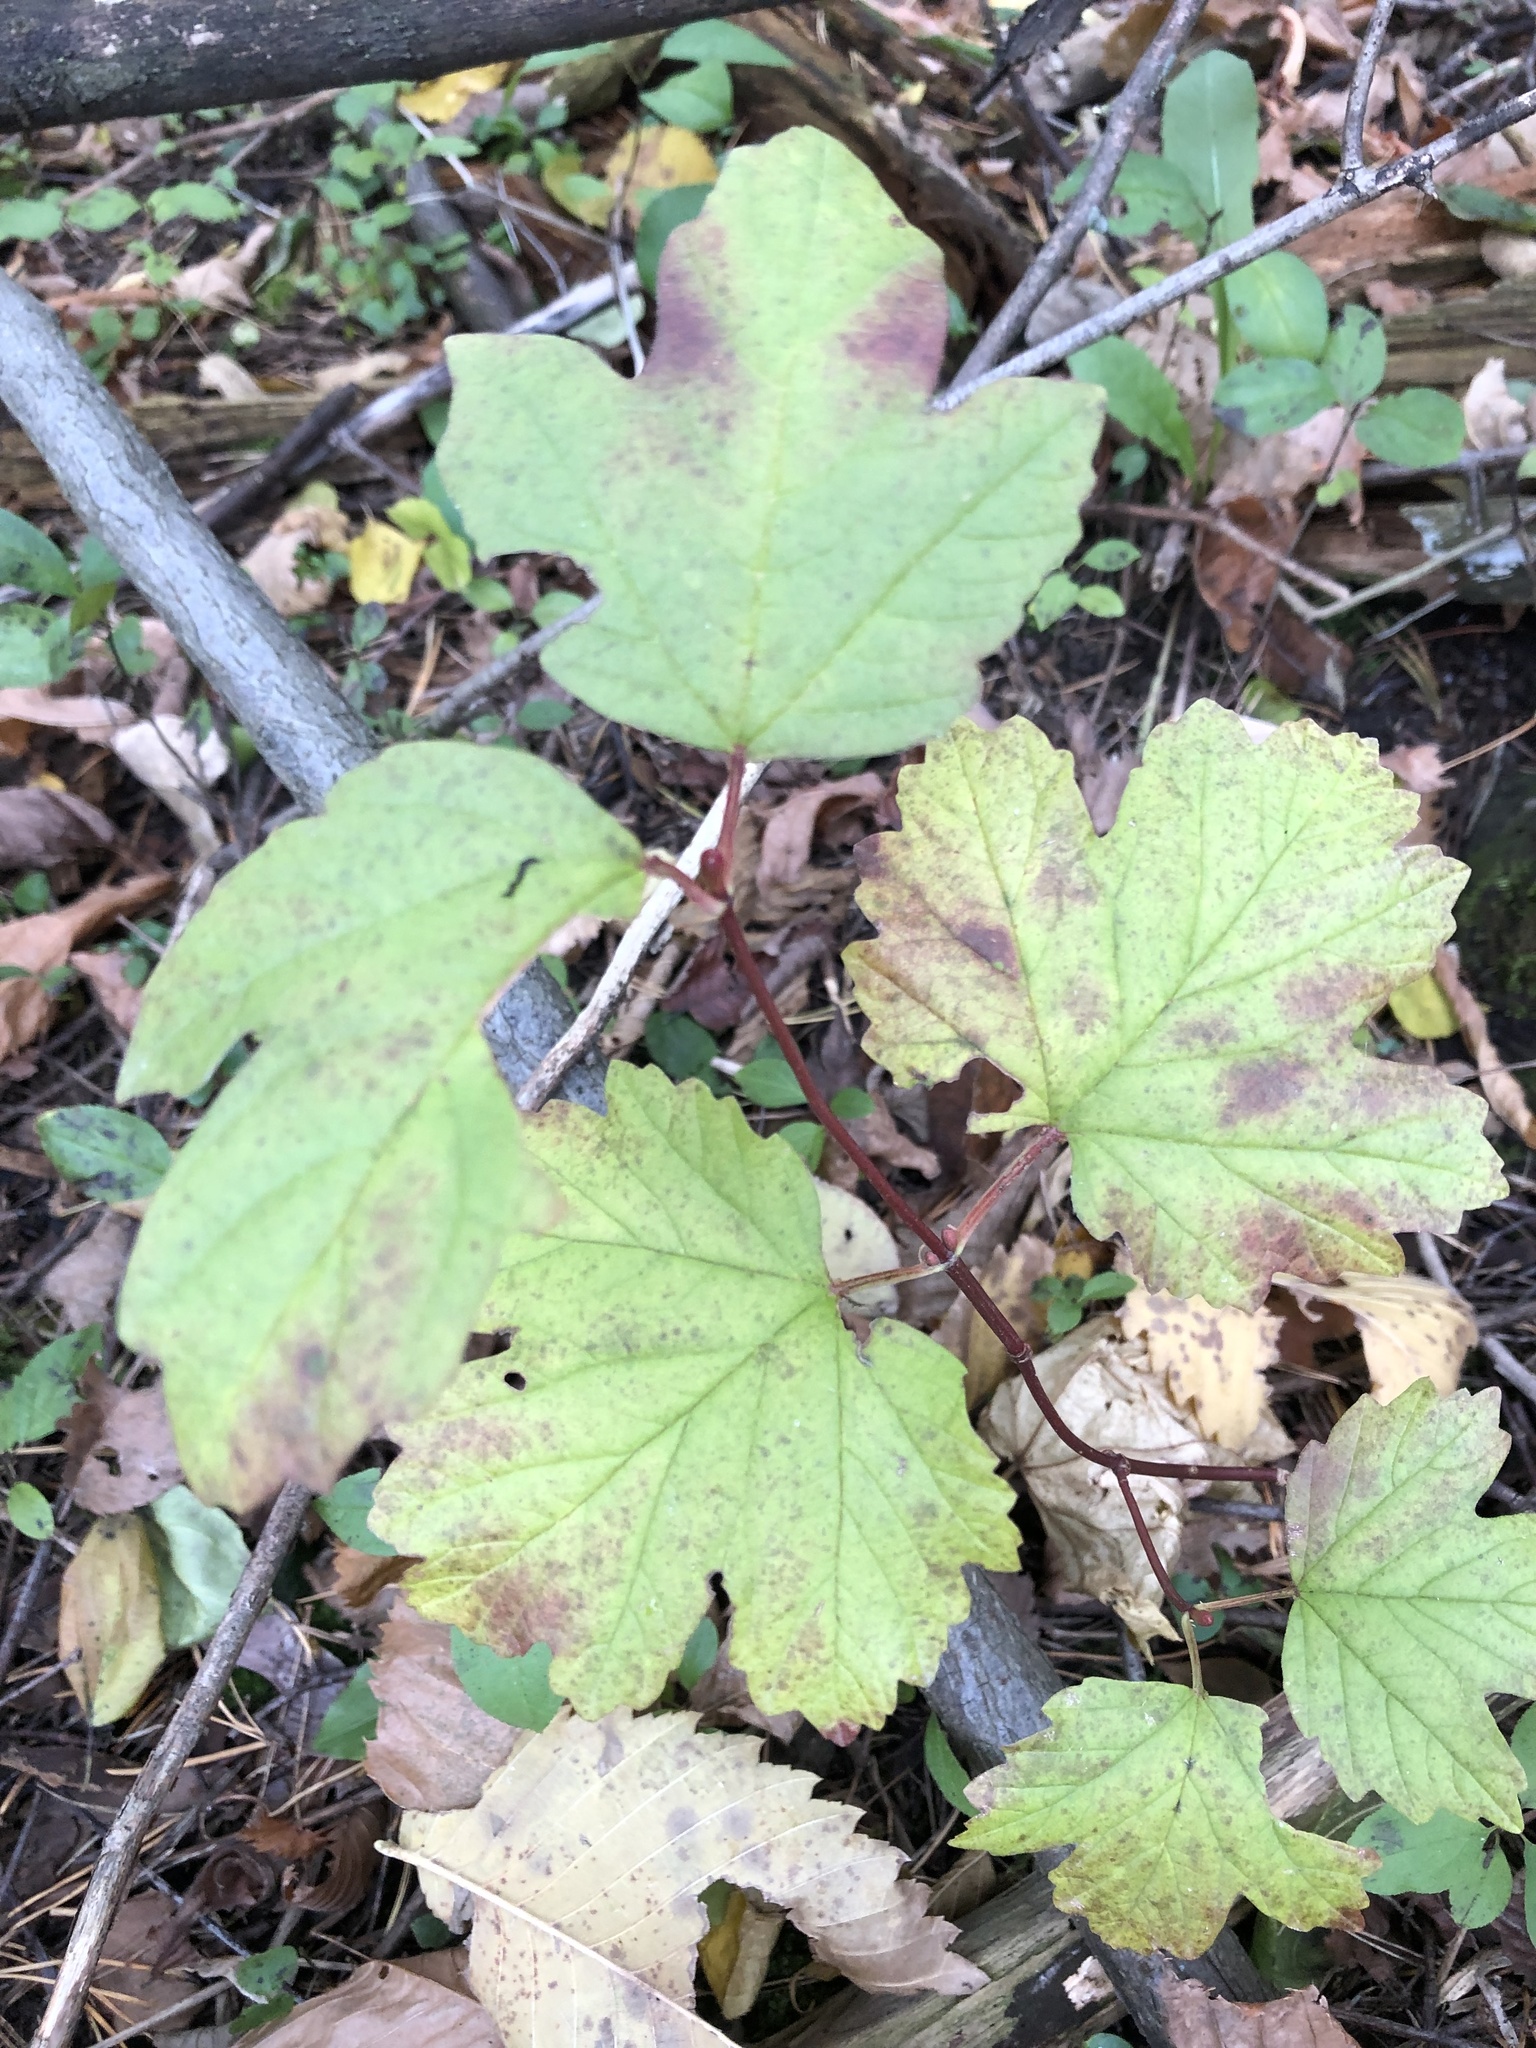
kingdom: Plantae
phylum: Tracheophyta
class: Magnoliopsida
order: Dipsacales
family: Viburnaceae
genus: Viburnum
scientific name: Viburnum opulus
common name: Guelder-rose
